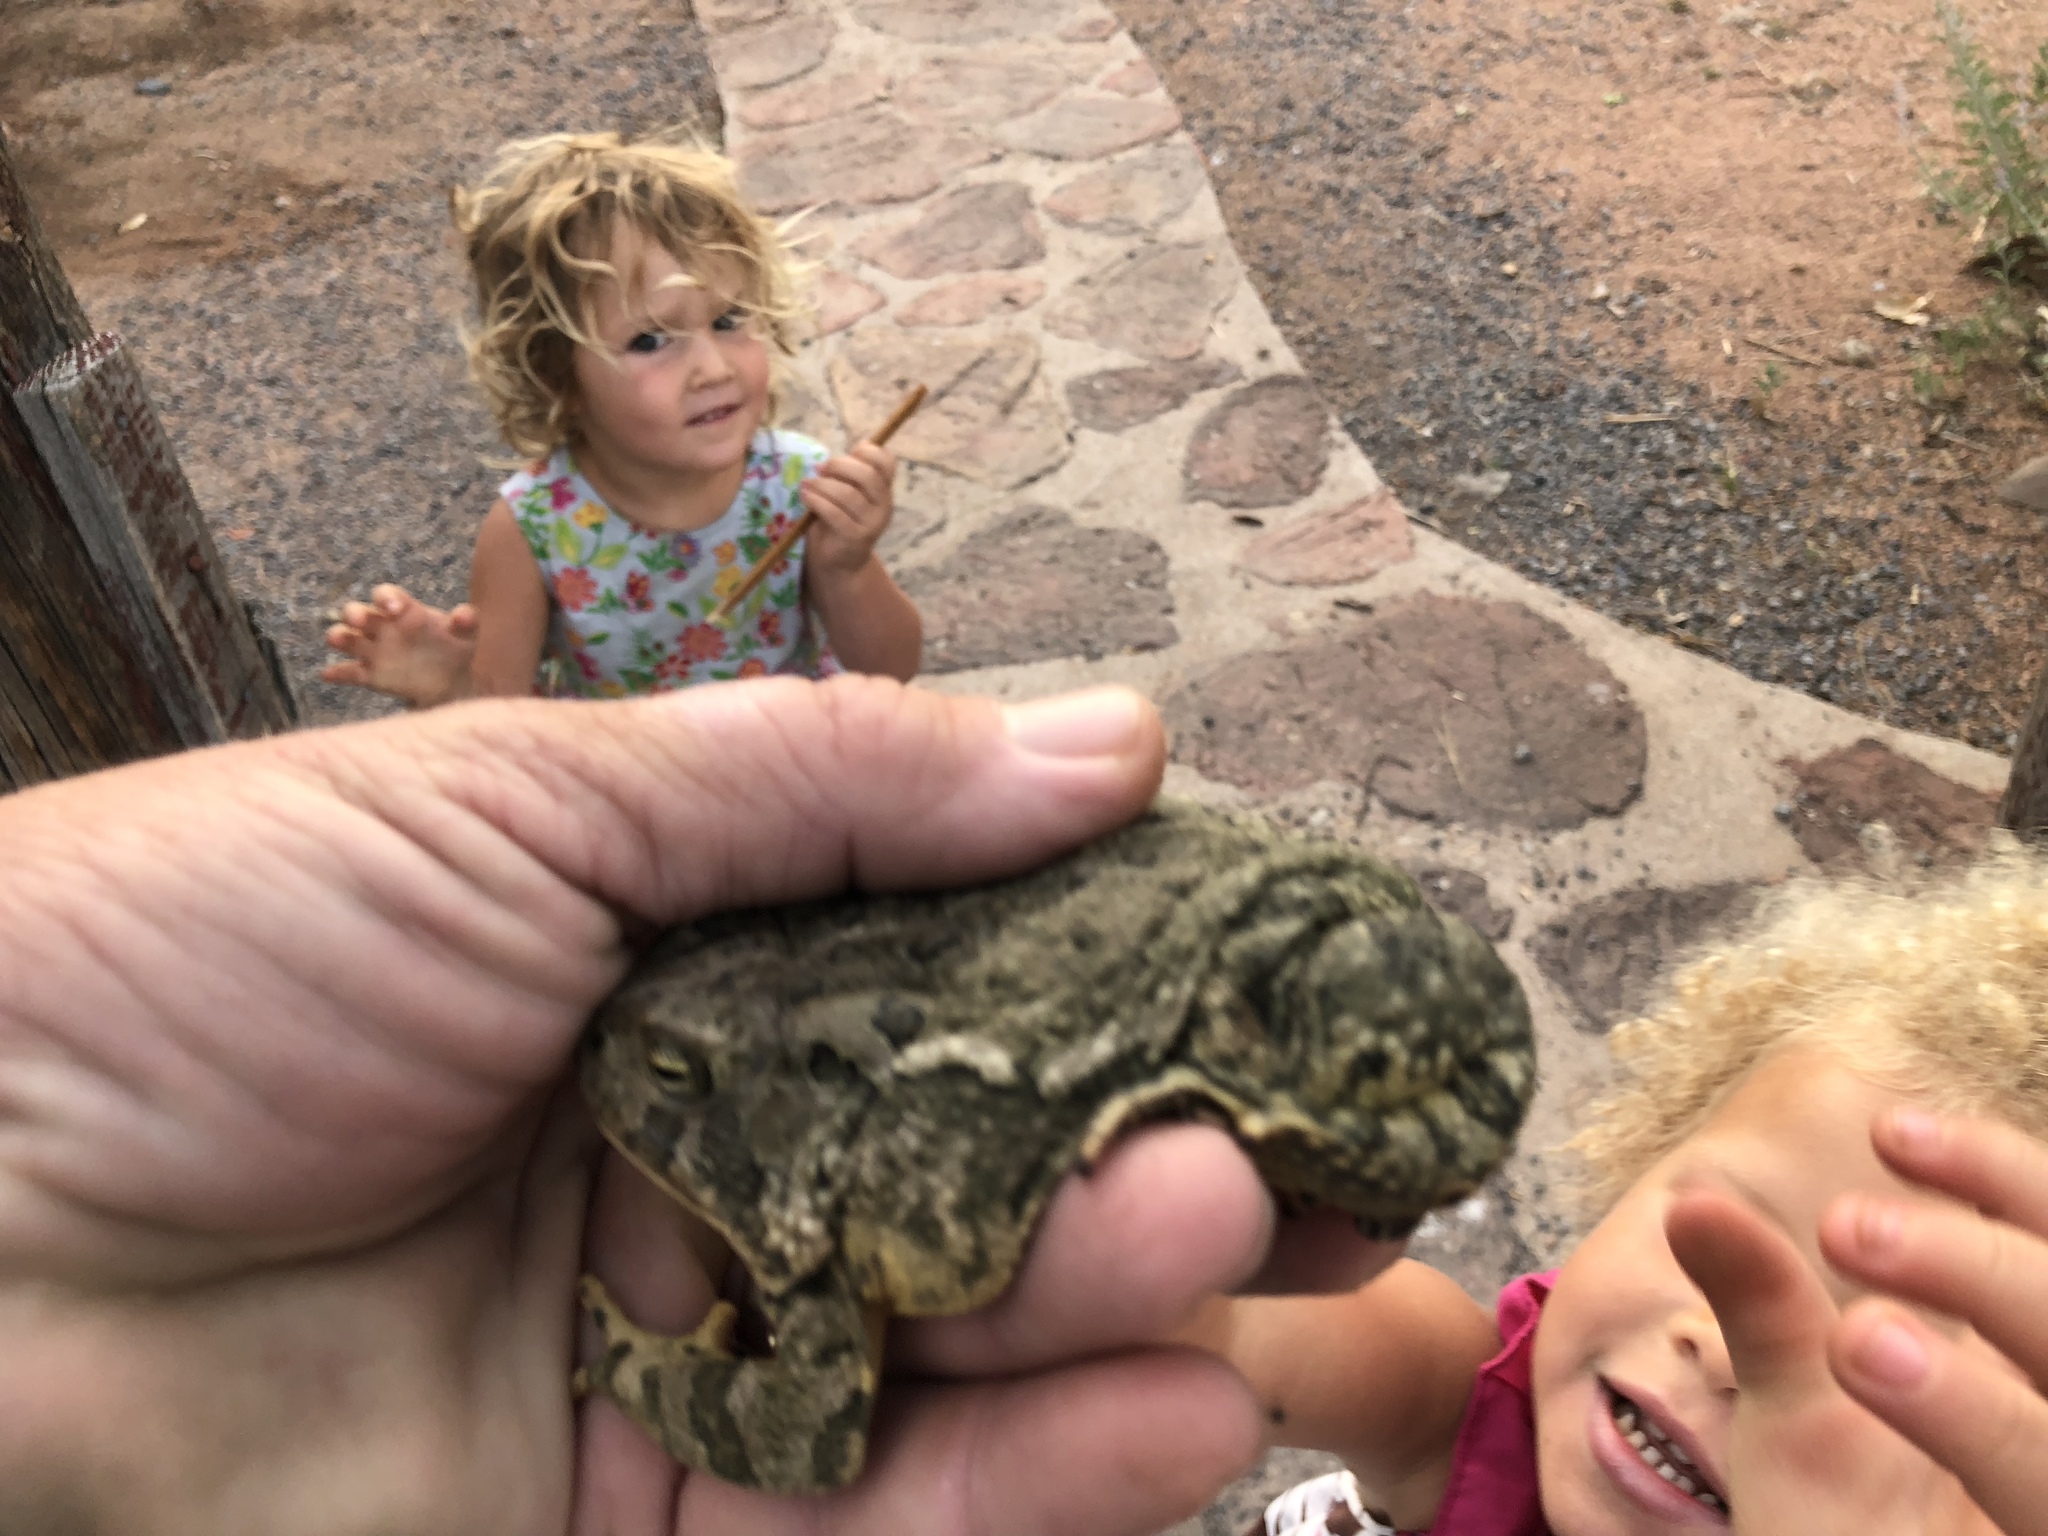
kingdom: Animalia
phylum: Chordata
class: Amphibia
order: Anura
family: Bufonidae
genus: Anaxyrus
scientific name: Anaxyrus woodhousii
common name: Woodhouse's toad
